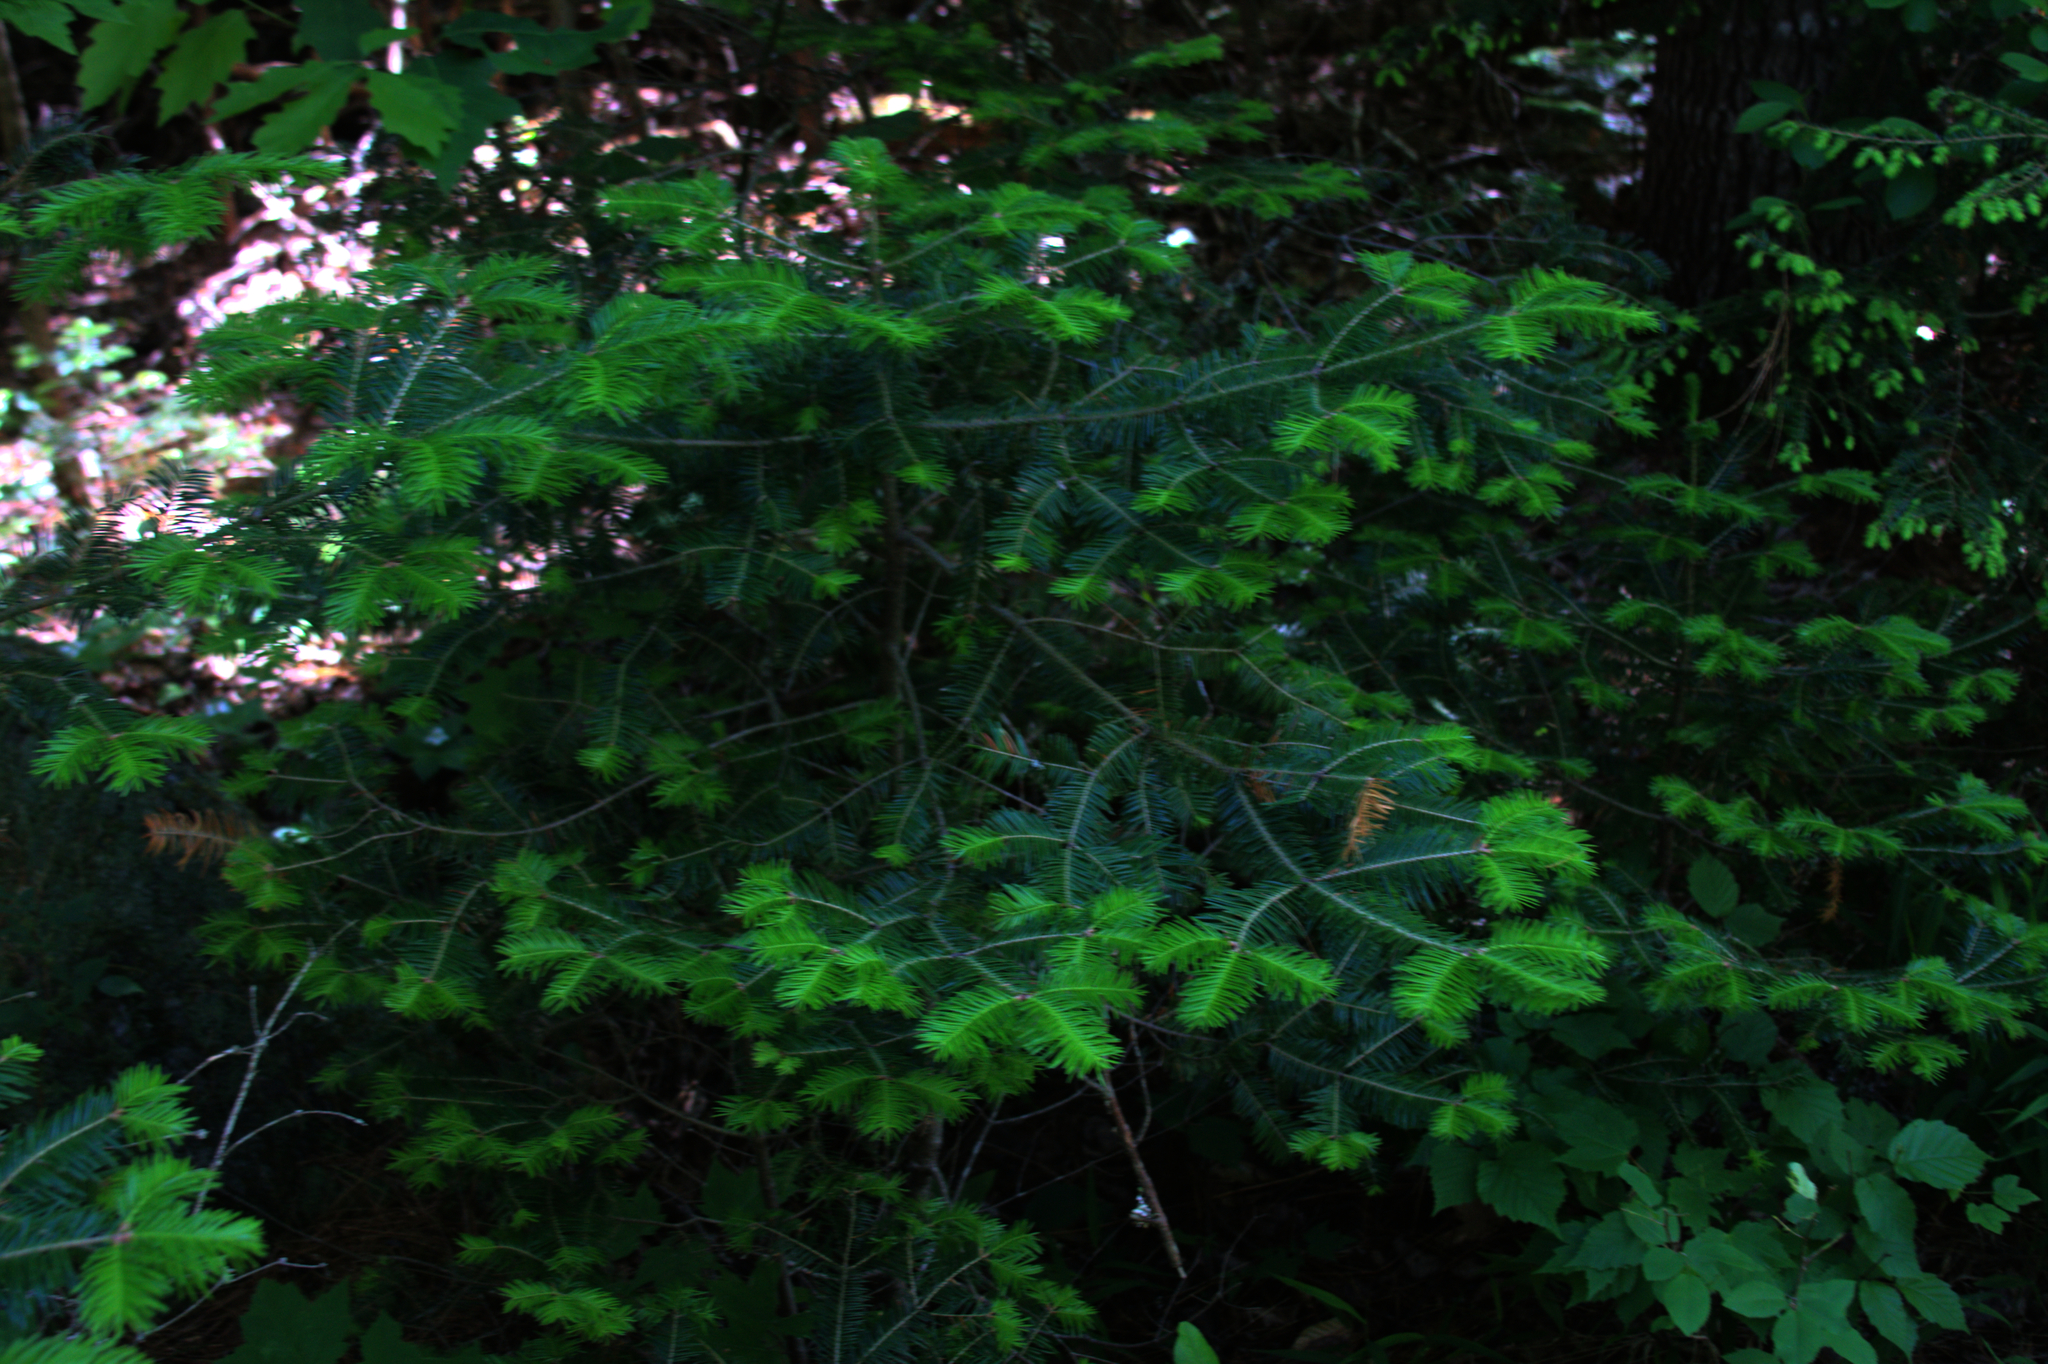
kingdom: Plantae
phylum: Tracheophyta
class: Pinopsida
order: Pinales
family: Pinaceae
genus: Abies
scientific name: Abies balsamea
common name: Balsam fir
